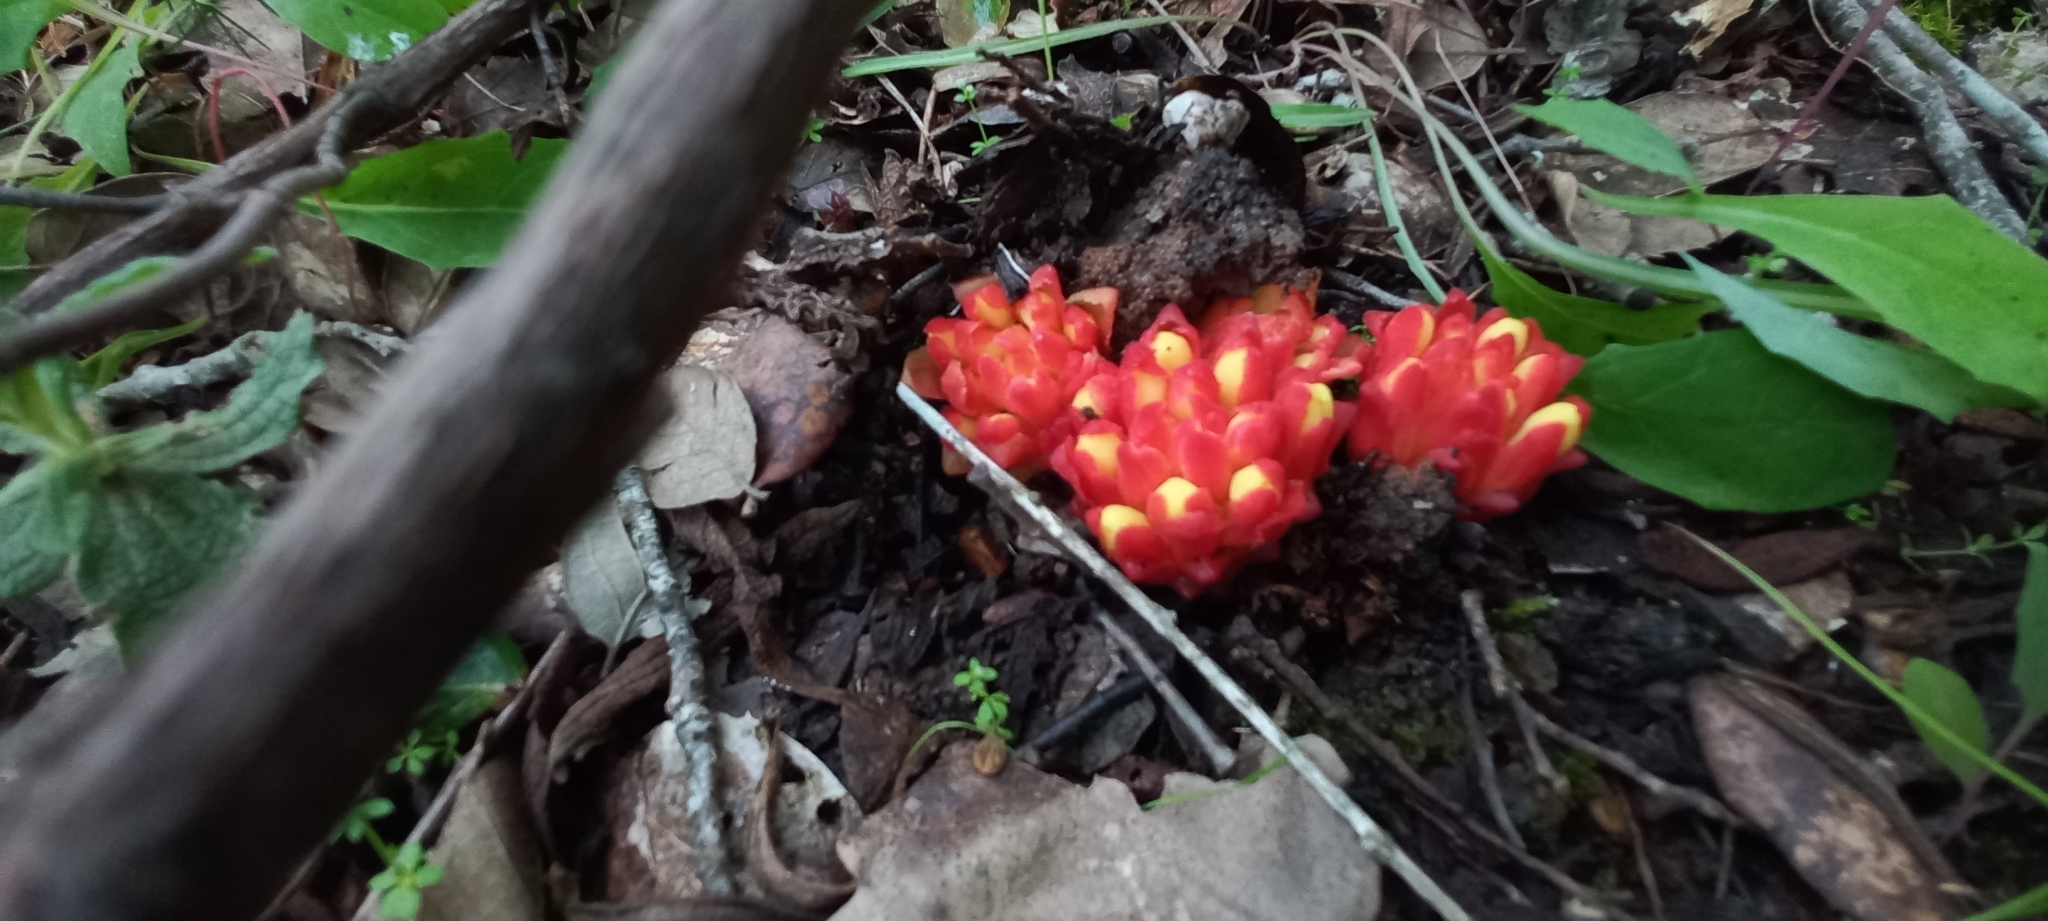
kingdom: Plantae
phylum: Tracheophyta
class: Magnoliopsida
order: Malvales
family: Cytinaceae
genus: Cytinus
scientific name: Cytinus hypocistis
